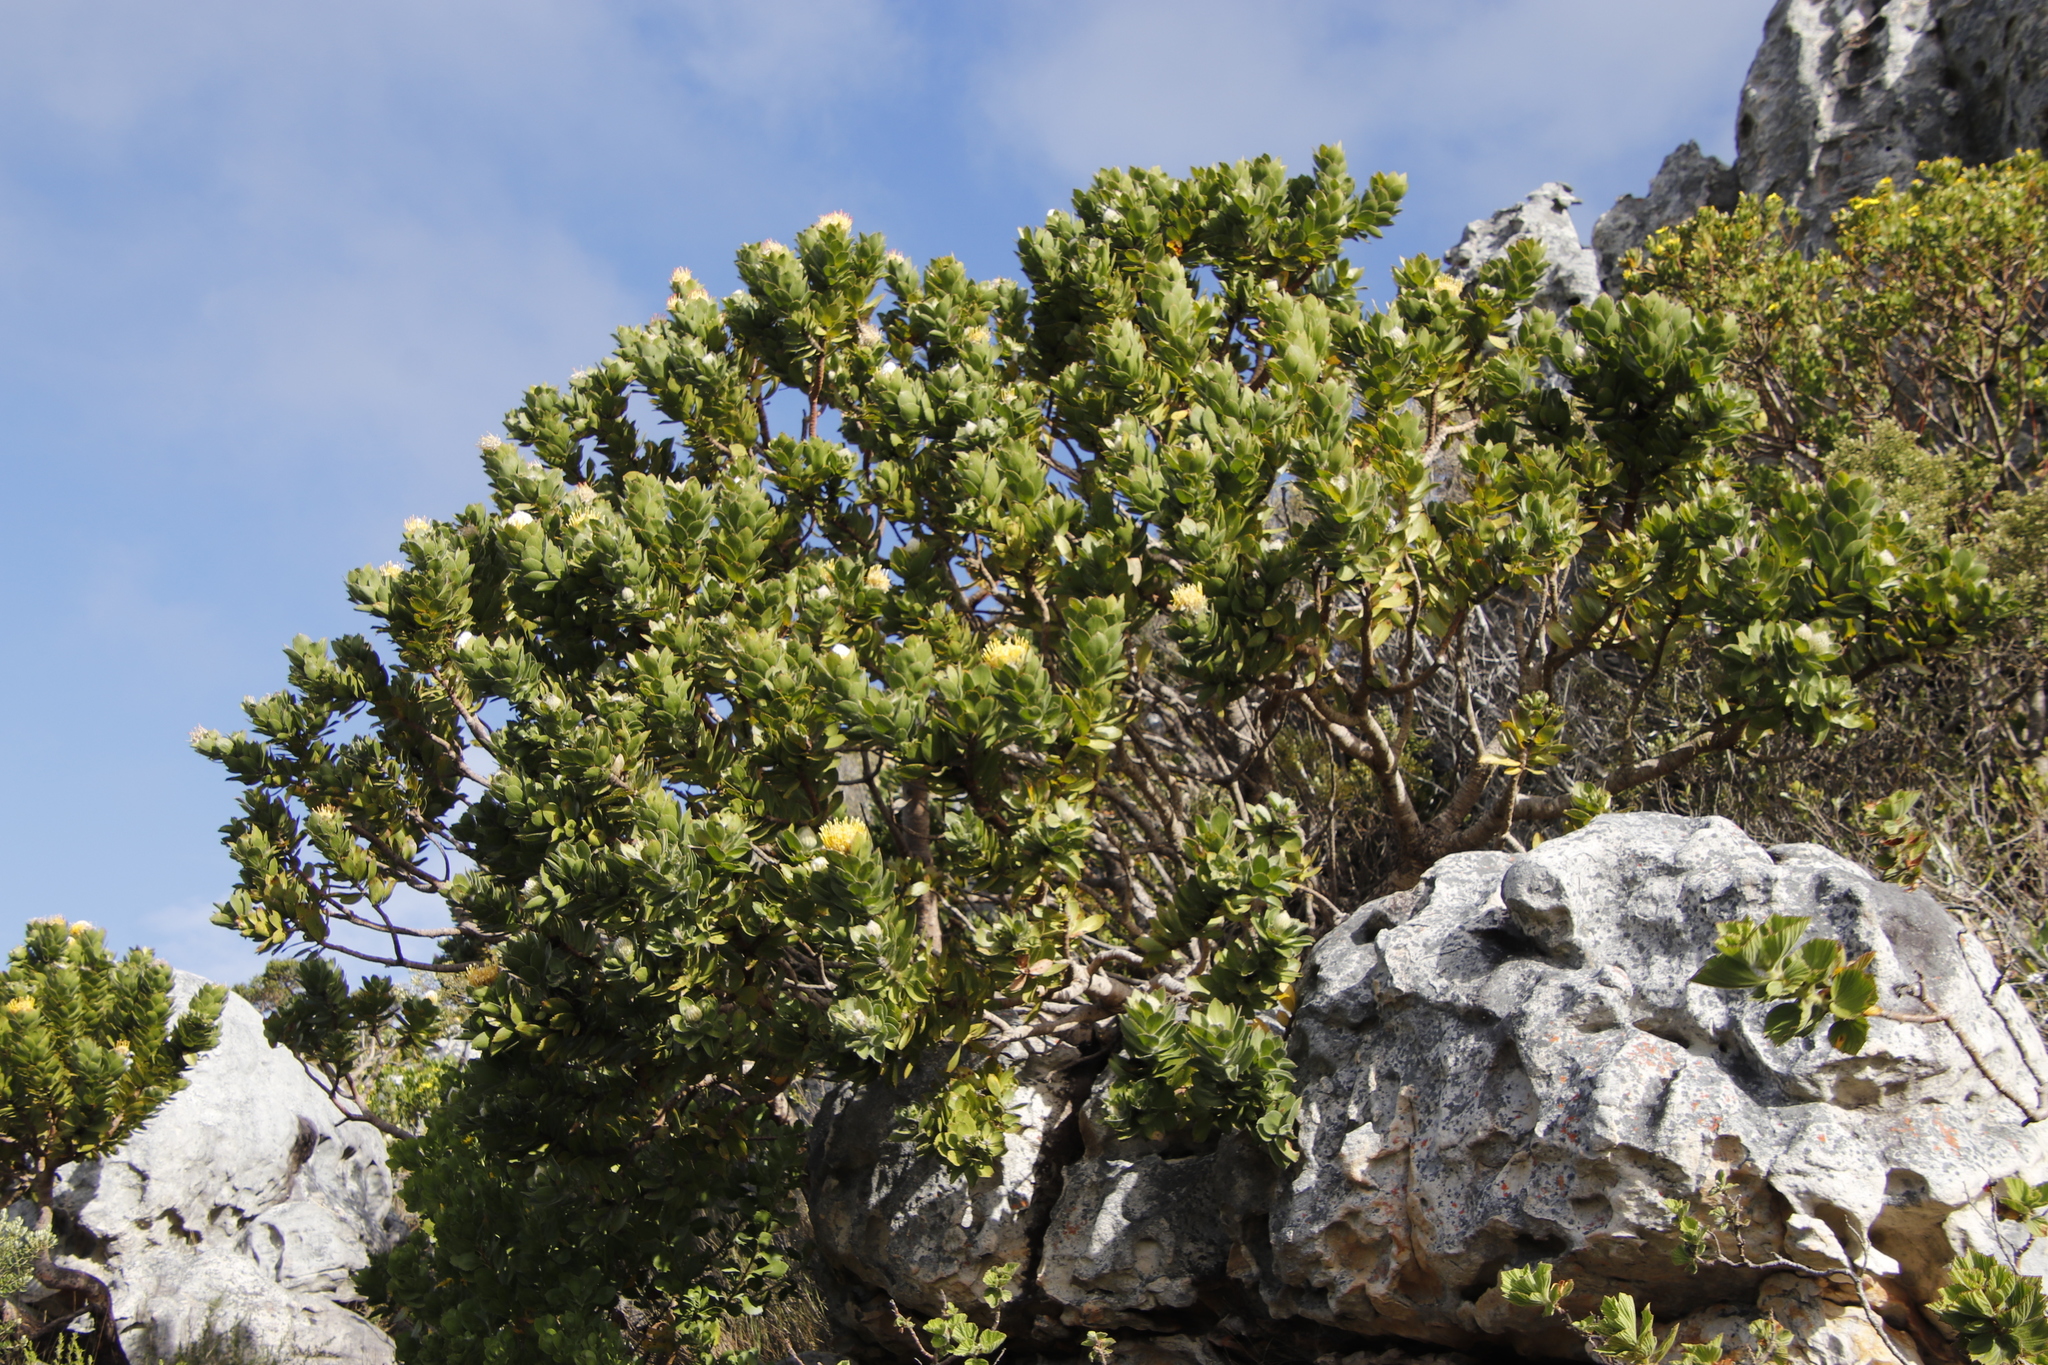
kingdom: Plantae
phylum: Tracheophyta
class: Magnoliopsida
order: Proteales
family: Proteaceae
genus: Leucospermum
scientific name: Leucospermum conocarpodendron
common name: Tree pincushion
